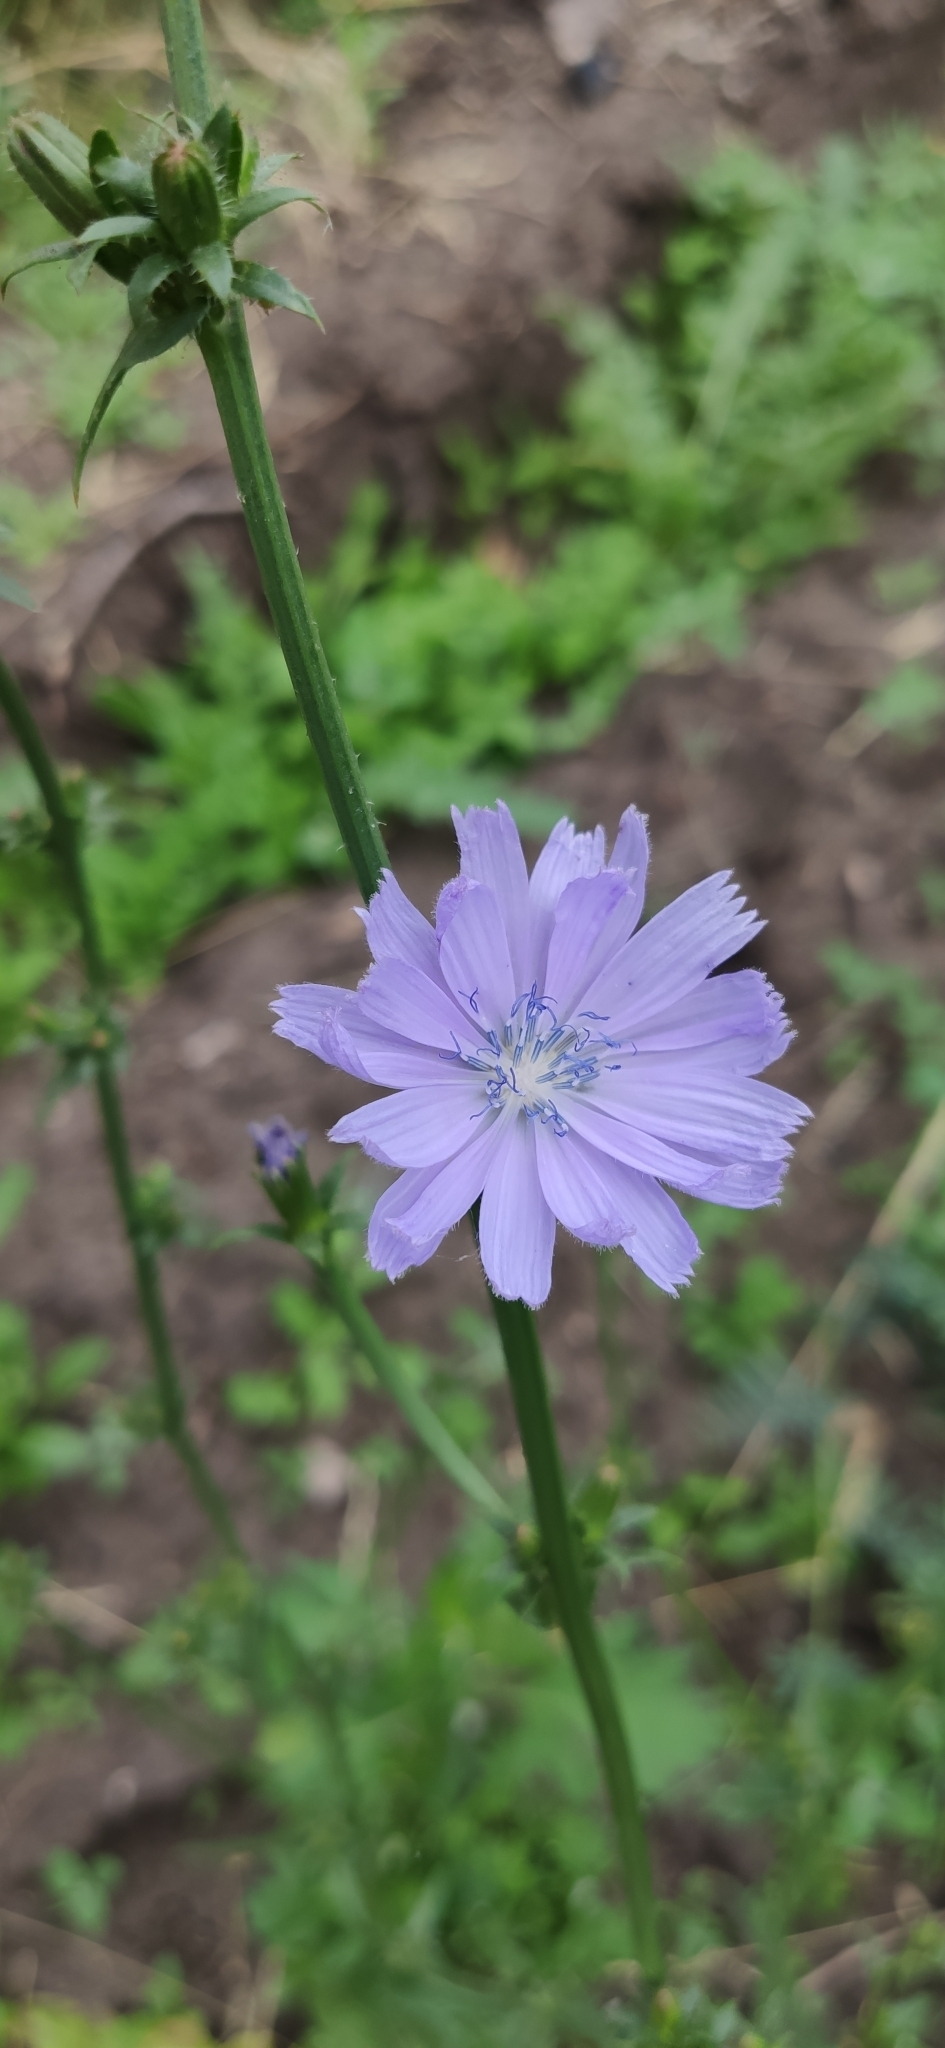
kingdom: Plantae
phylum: Tracheophyta
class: Magnoliopsida
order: Asterales
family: Asteraceae
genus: Cichorium
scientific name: Cichorium intybus
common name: Chicory
